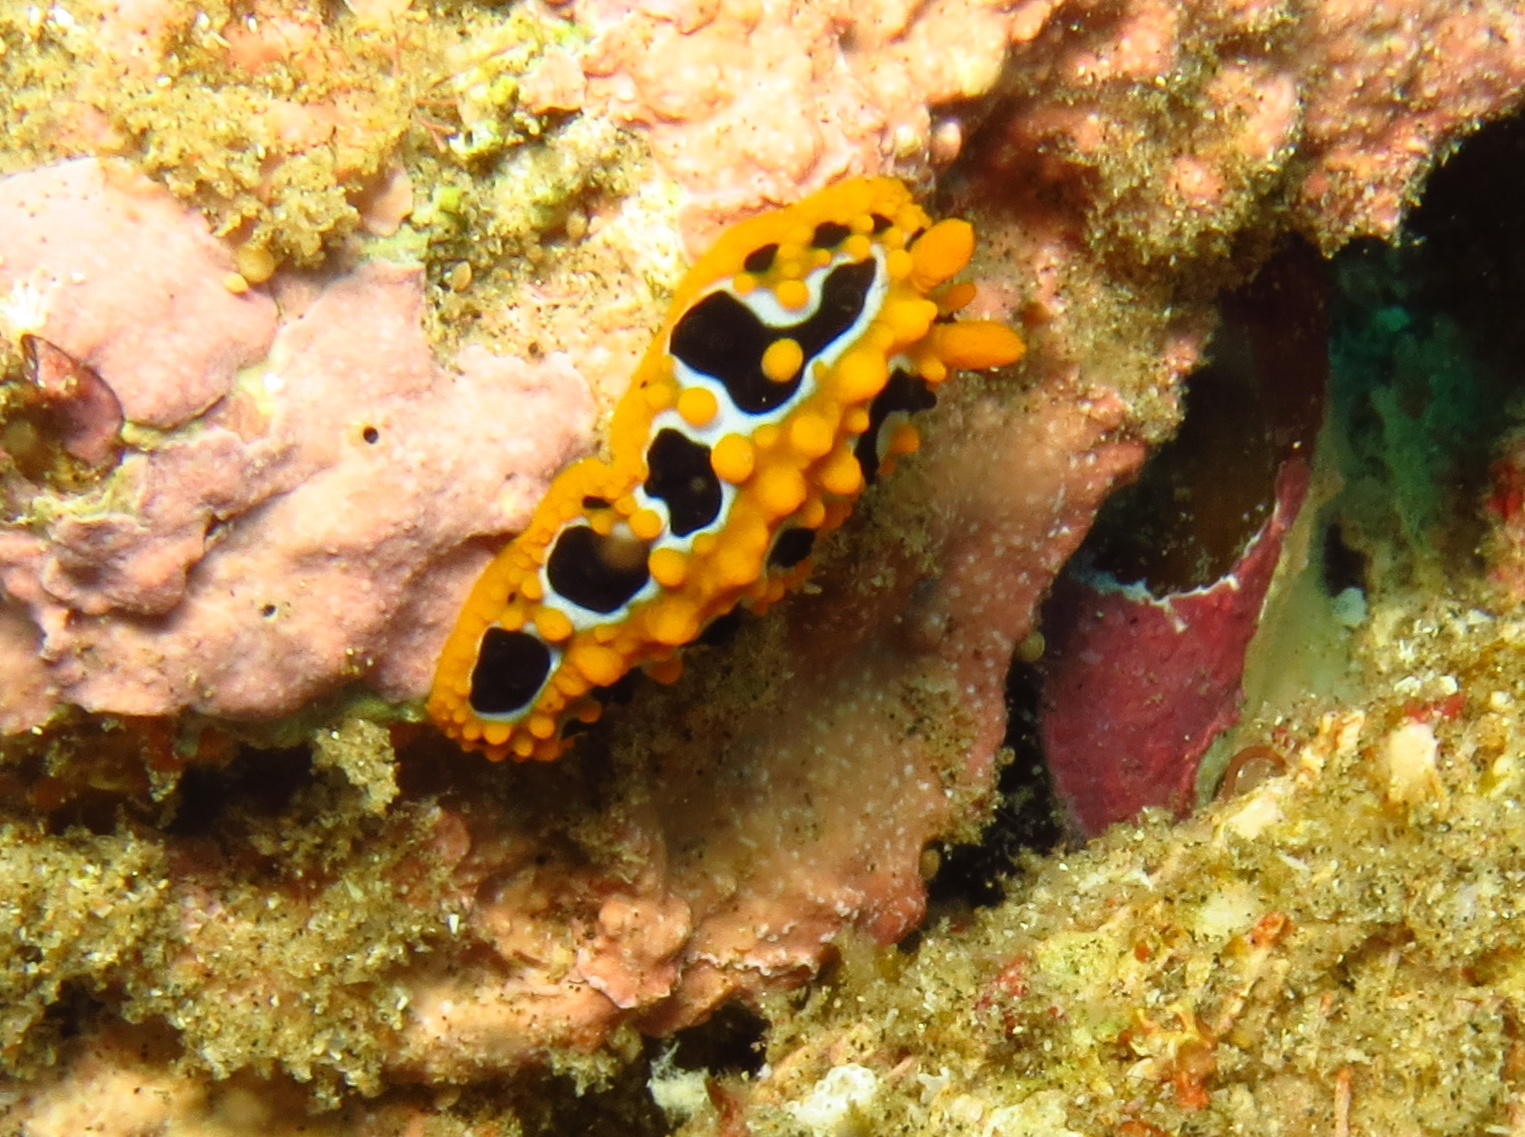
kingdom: Animalia
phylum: Mollusca
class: Gastropoda
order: Nudibranchia
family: Phyllidiidae
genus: Phyllidia
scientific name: Phyllidia ocellata
